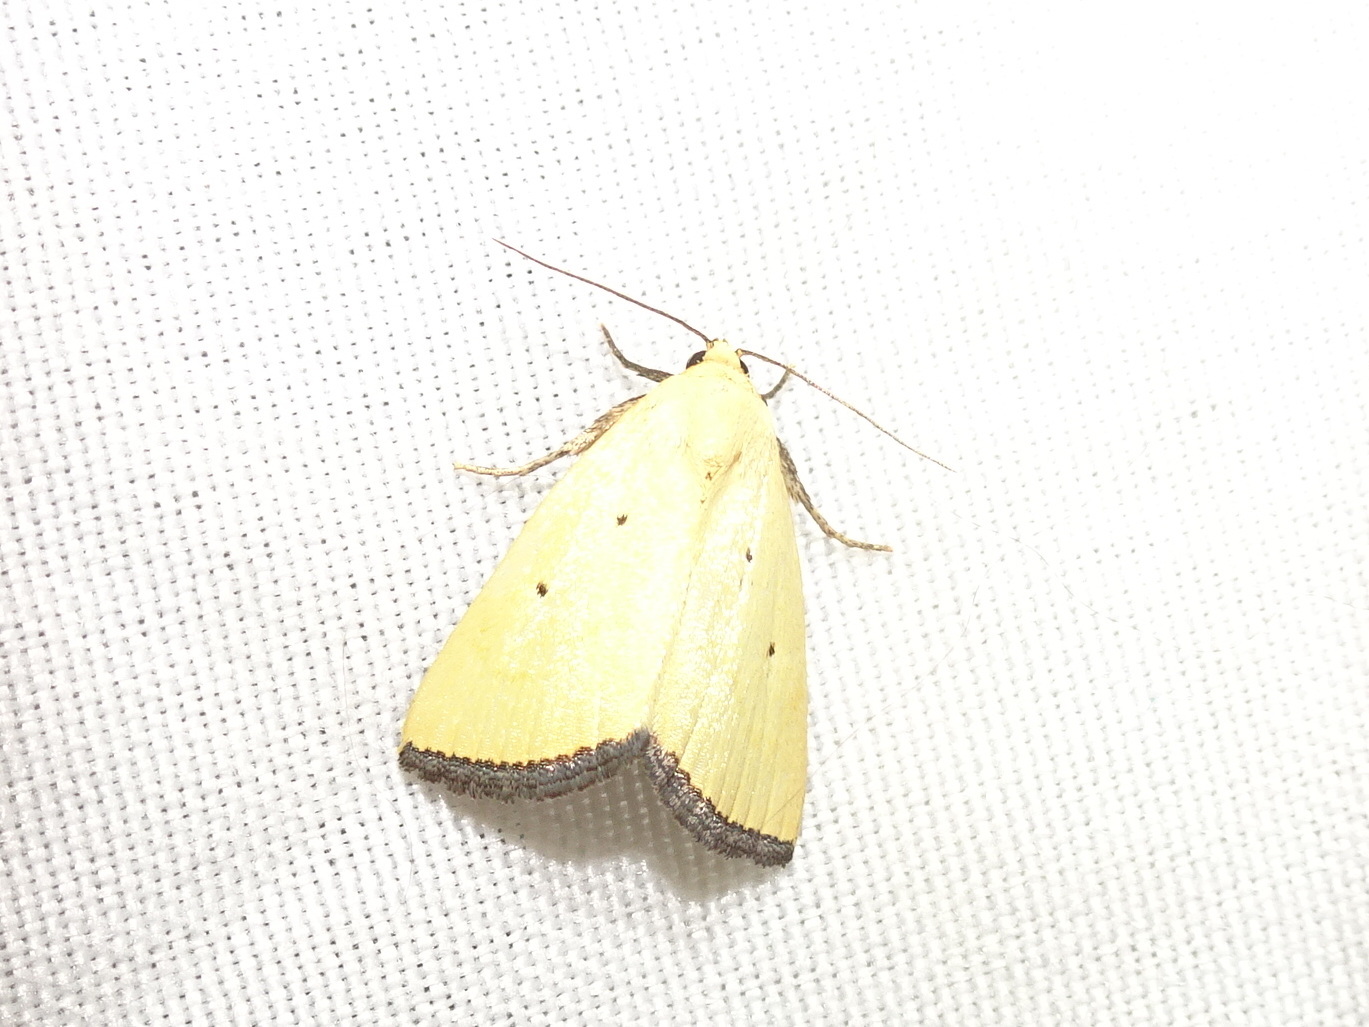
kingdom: Animalia
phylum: Arthropoda
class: Insecta
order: Lepidoptera
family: Noctuidae
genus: Marimatha
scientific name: Marimatha nigrofimbria
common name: Black-bordered lemon moth
